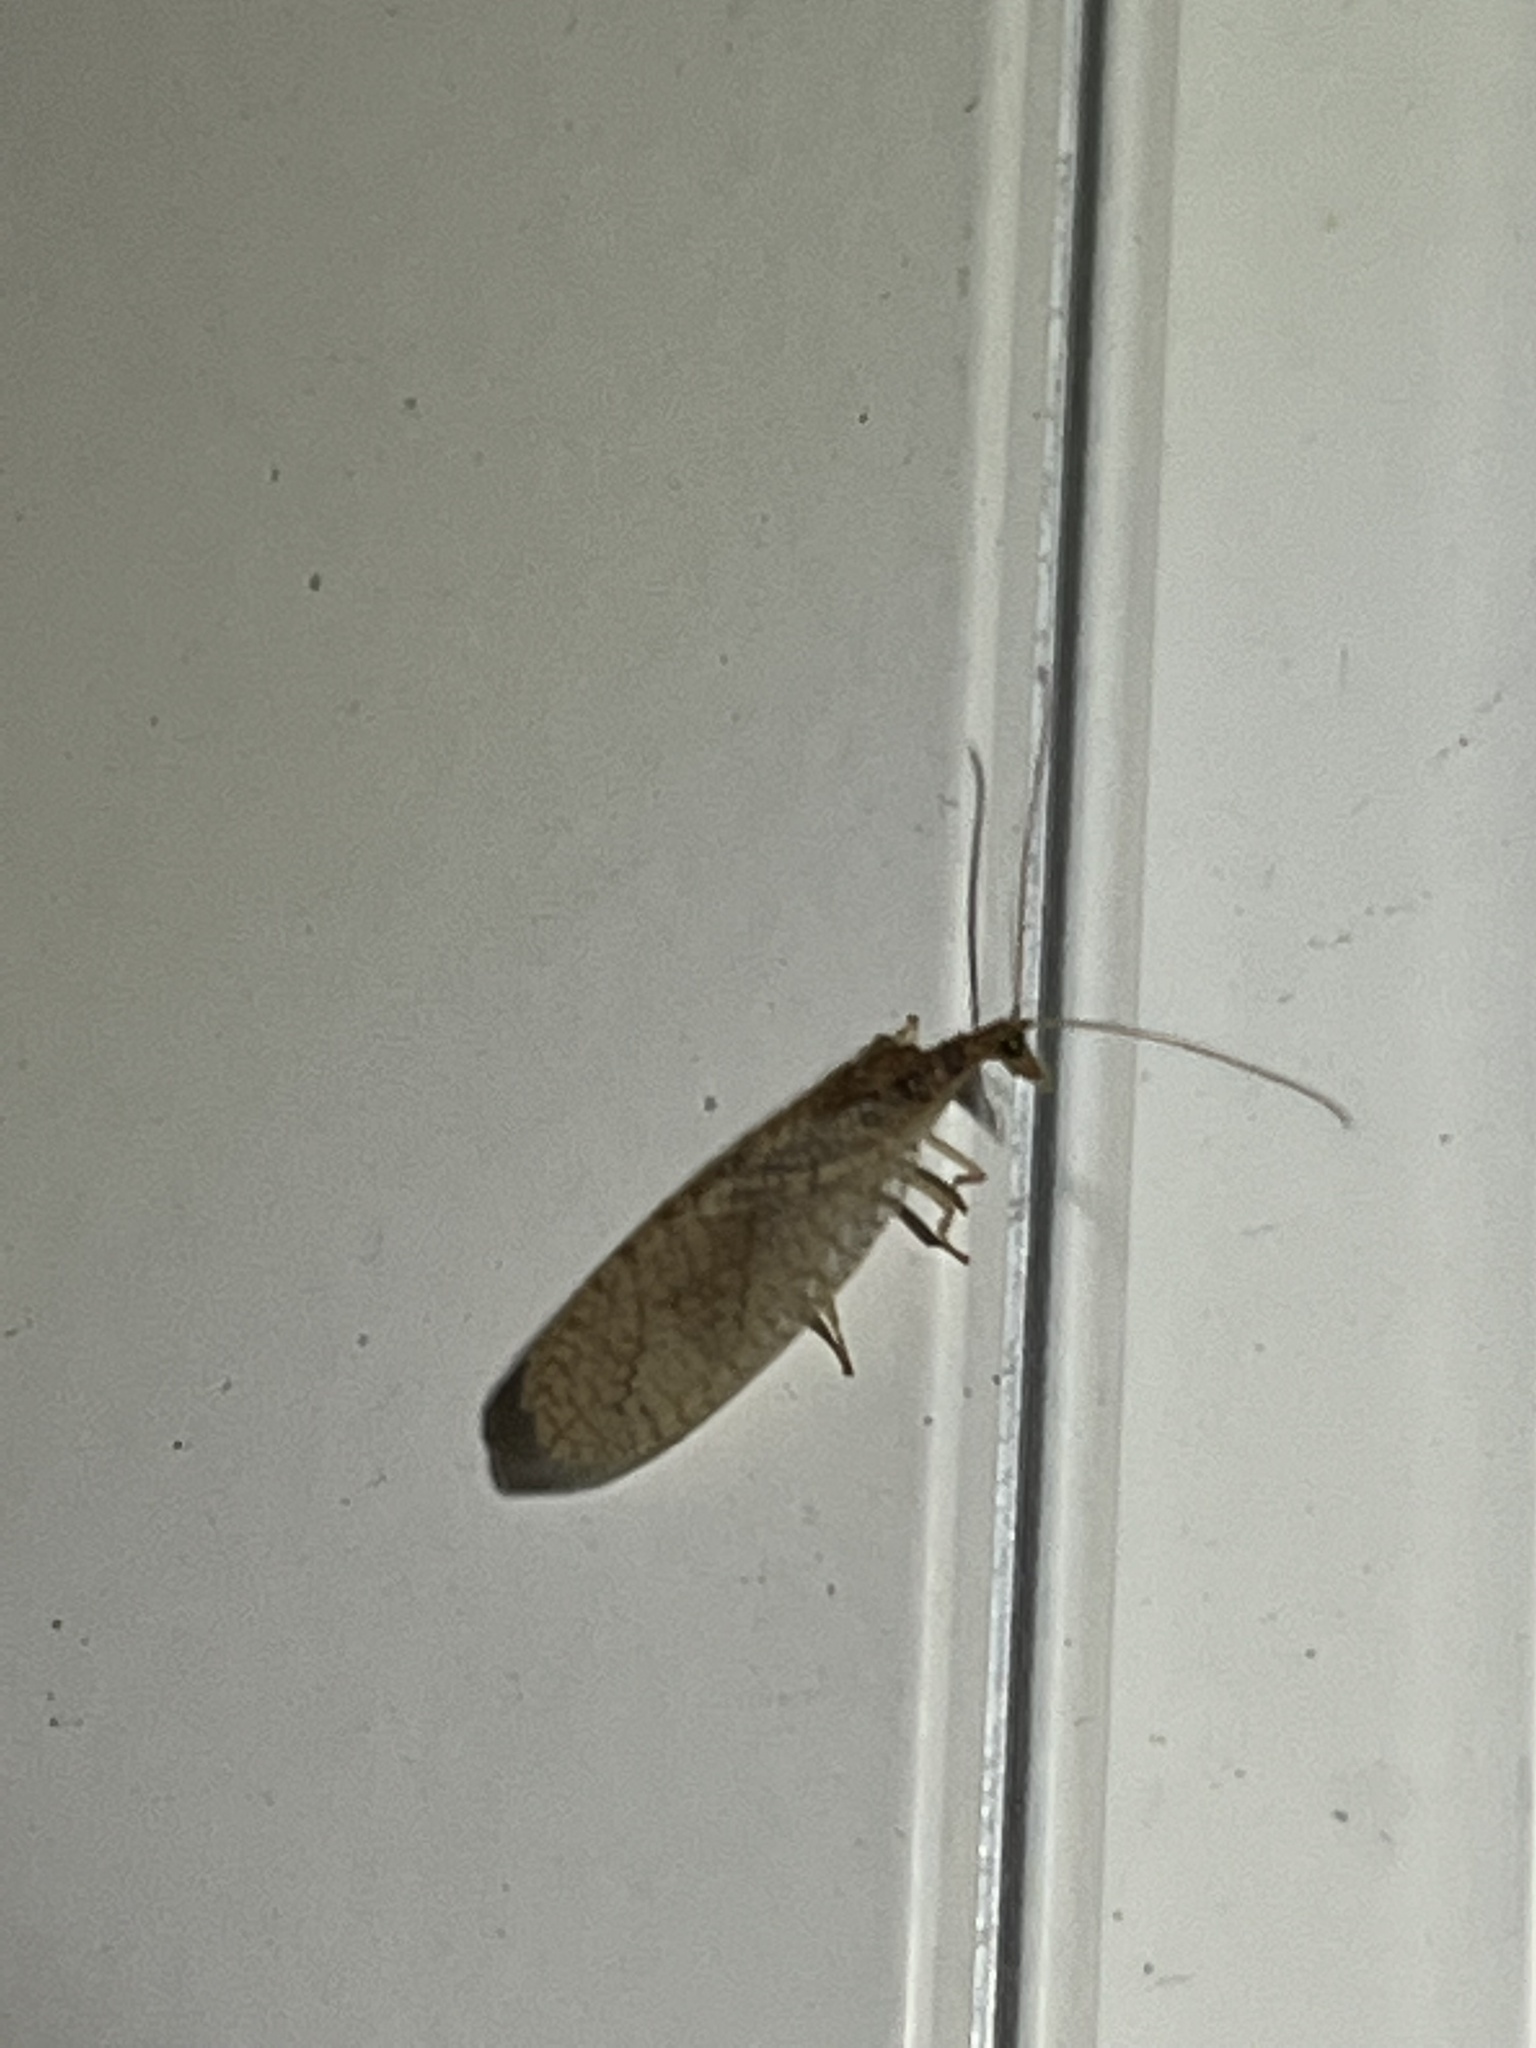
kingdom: Animalia
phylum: Arthropoda
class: Insecta
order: Neuroptera
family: Hemerobiidae
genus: Micromus
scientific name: Micromus posticus
